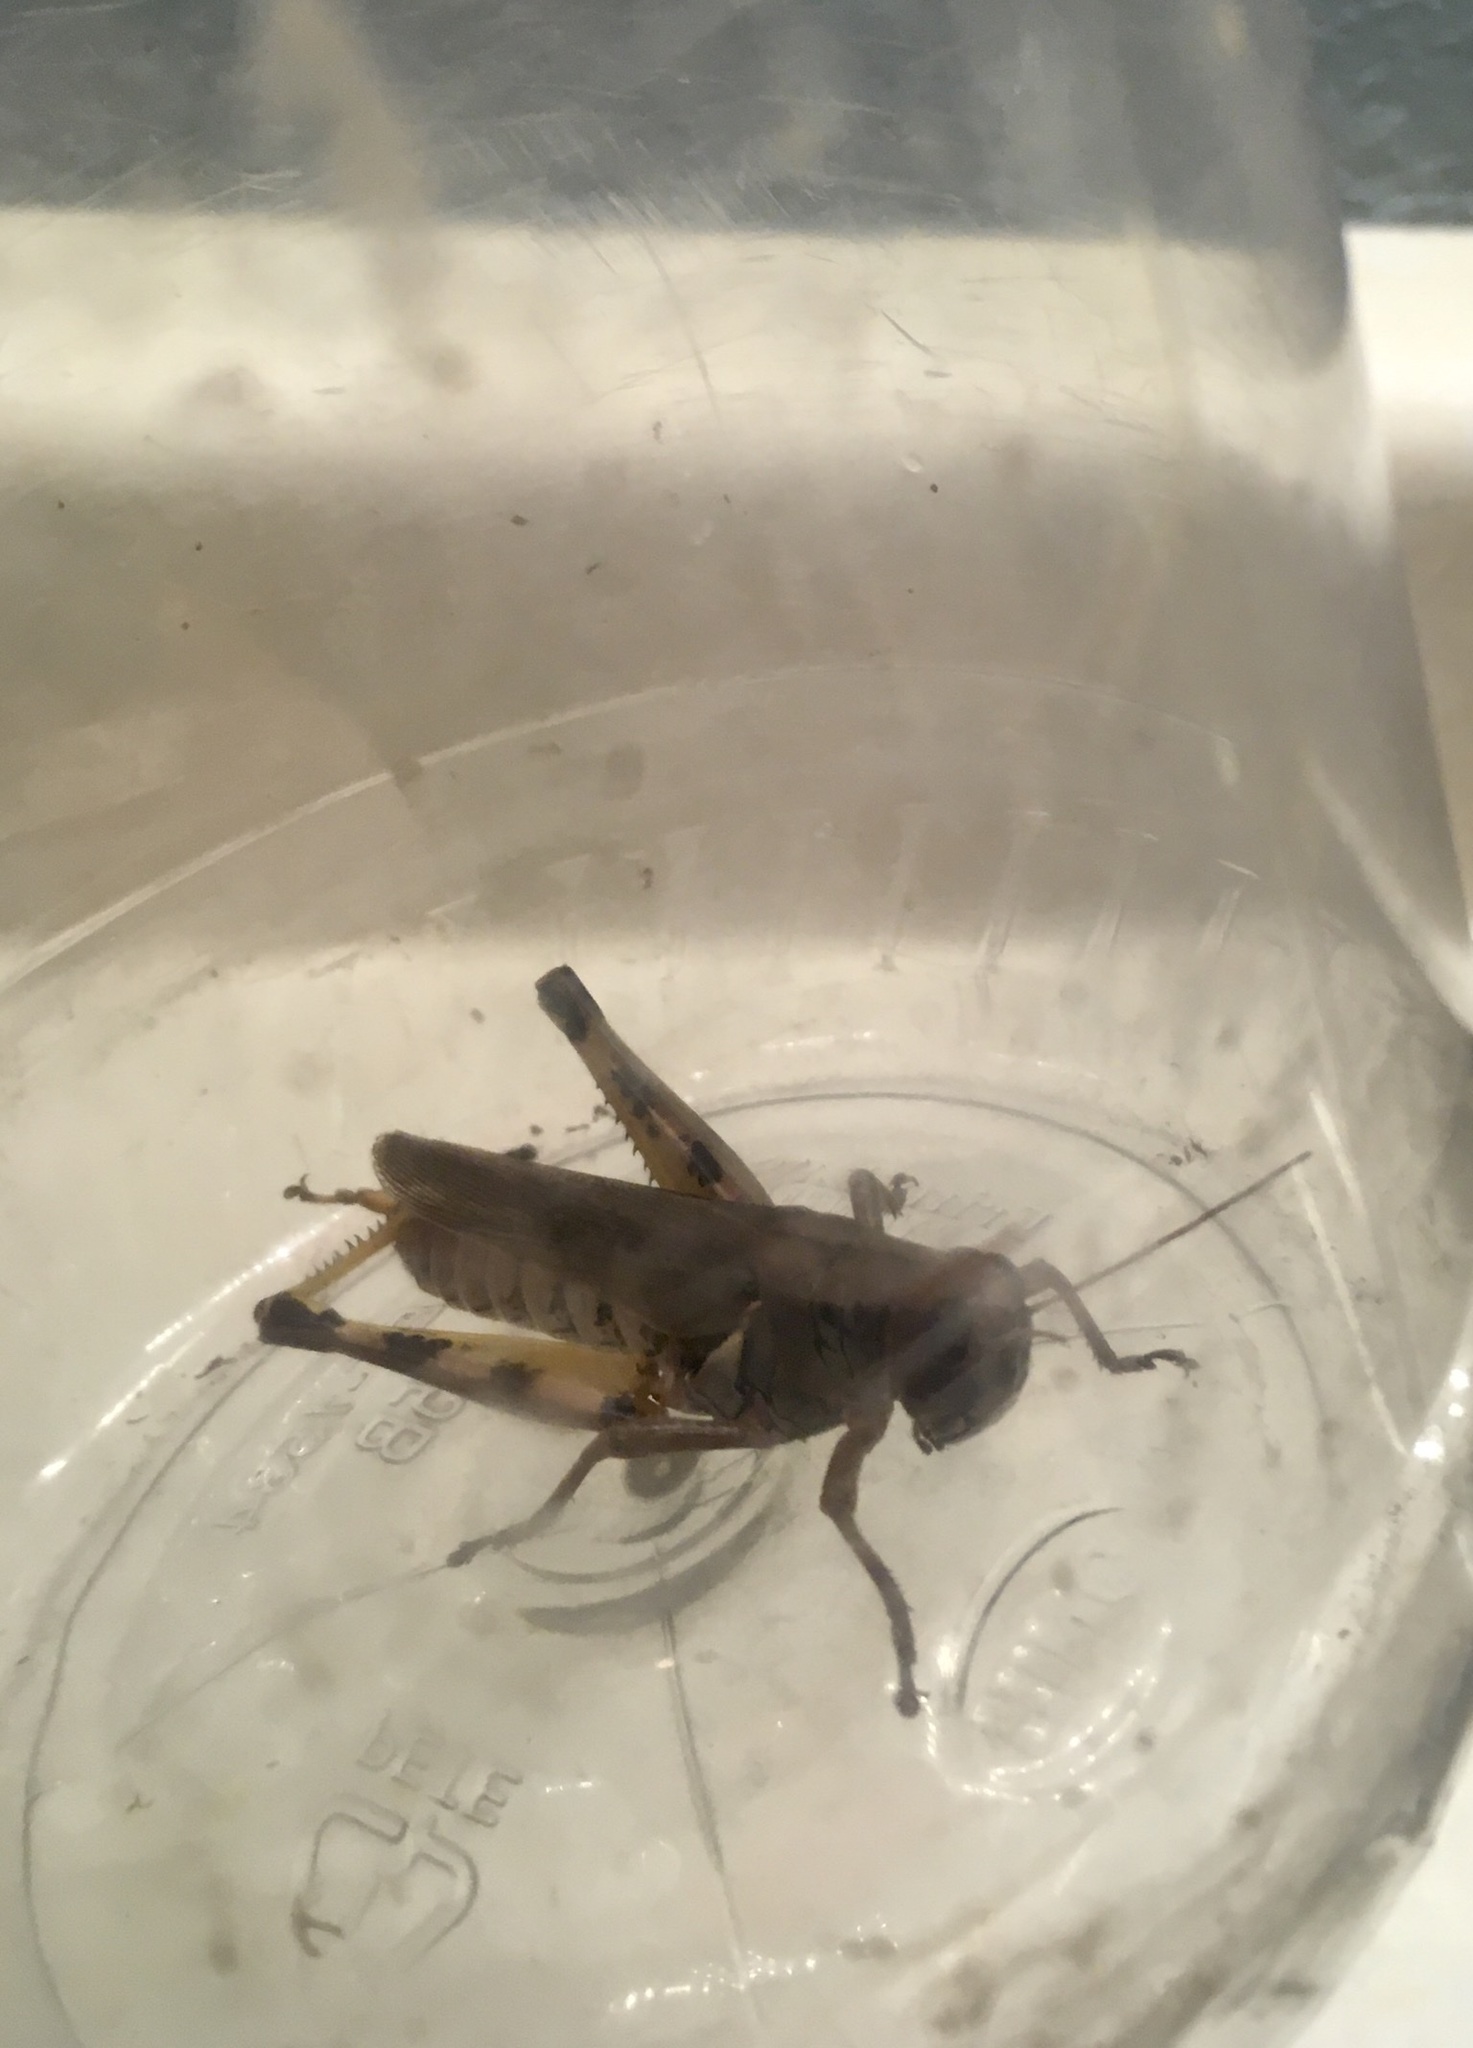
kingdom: Animalia
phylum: Arthropoda
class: Insecta
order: Orthoptera
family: Acrididae
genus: Melanoplus
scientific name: Melanoplus differentialis
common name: Differential grasshopper
